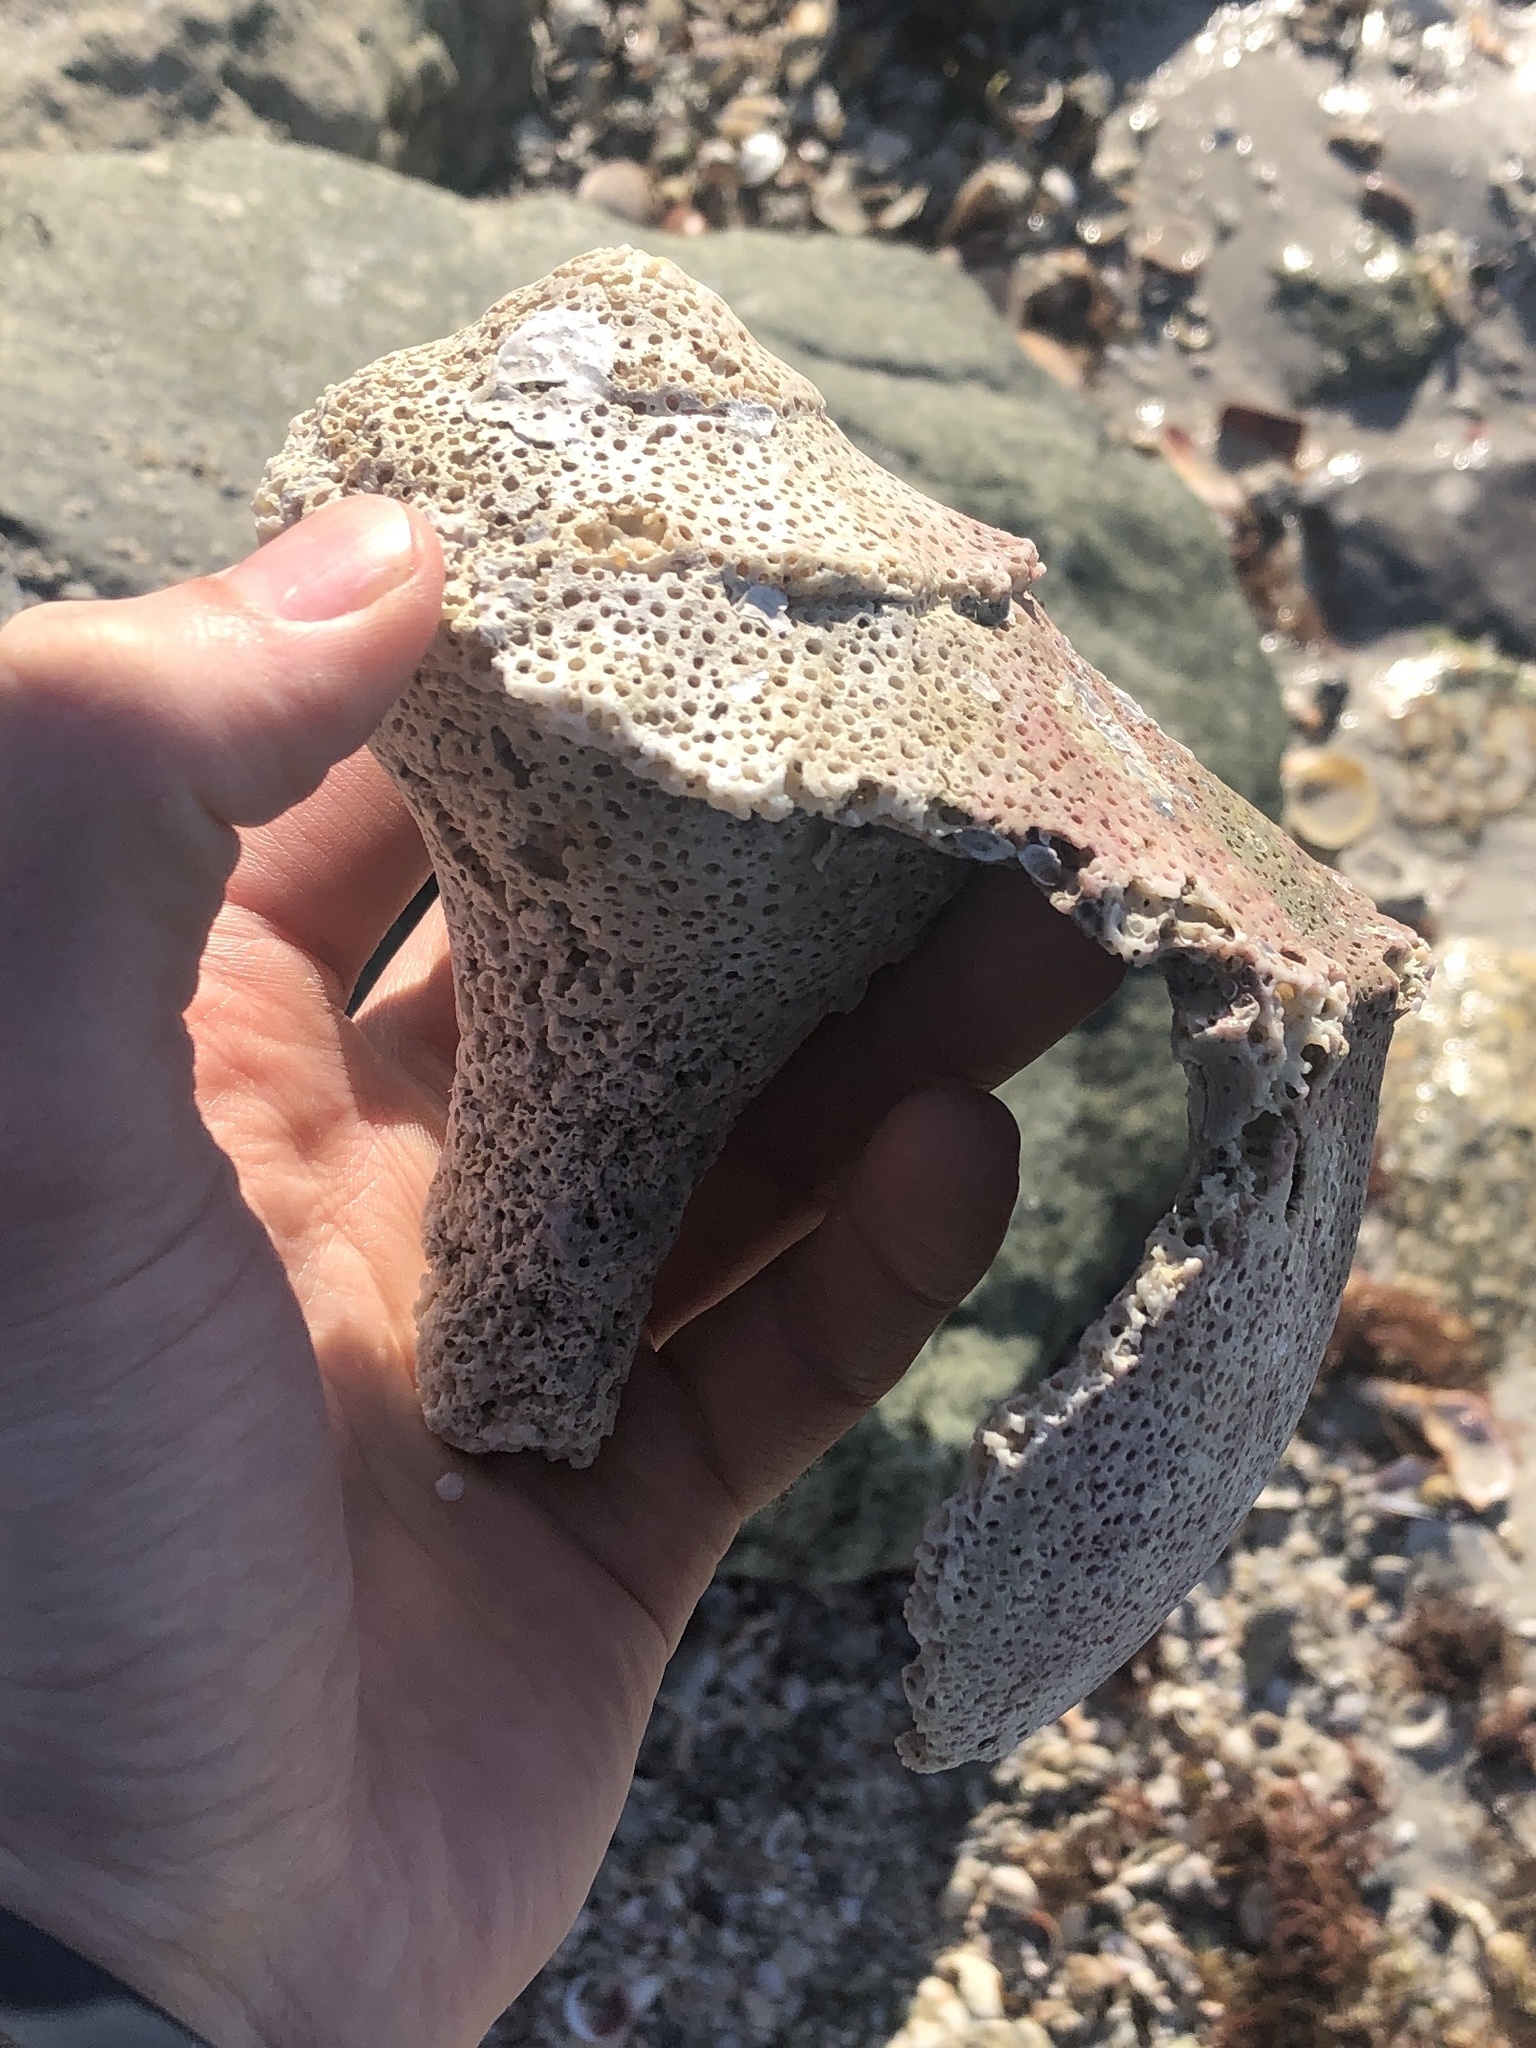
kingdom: Animalia
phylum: Mollusca
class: Gastropoda
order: Neogastropoda
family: Busyconidae
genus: Sinistrofulgur
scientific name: Sinistrofulgur sinistrum
